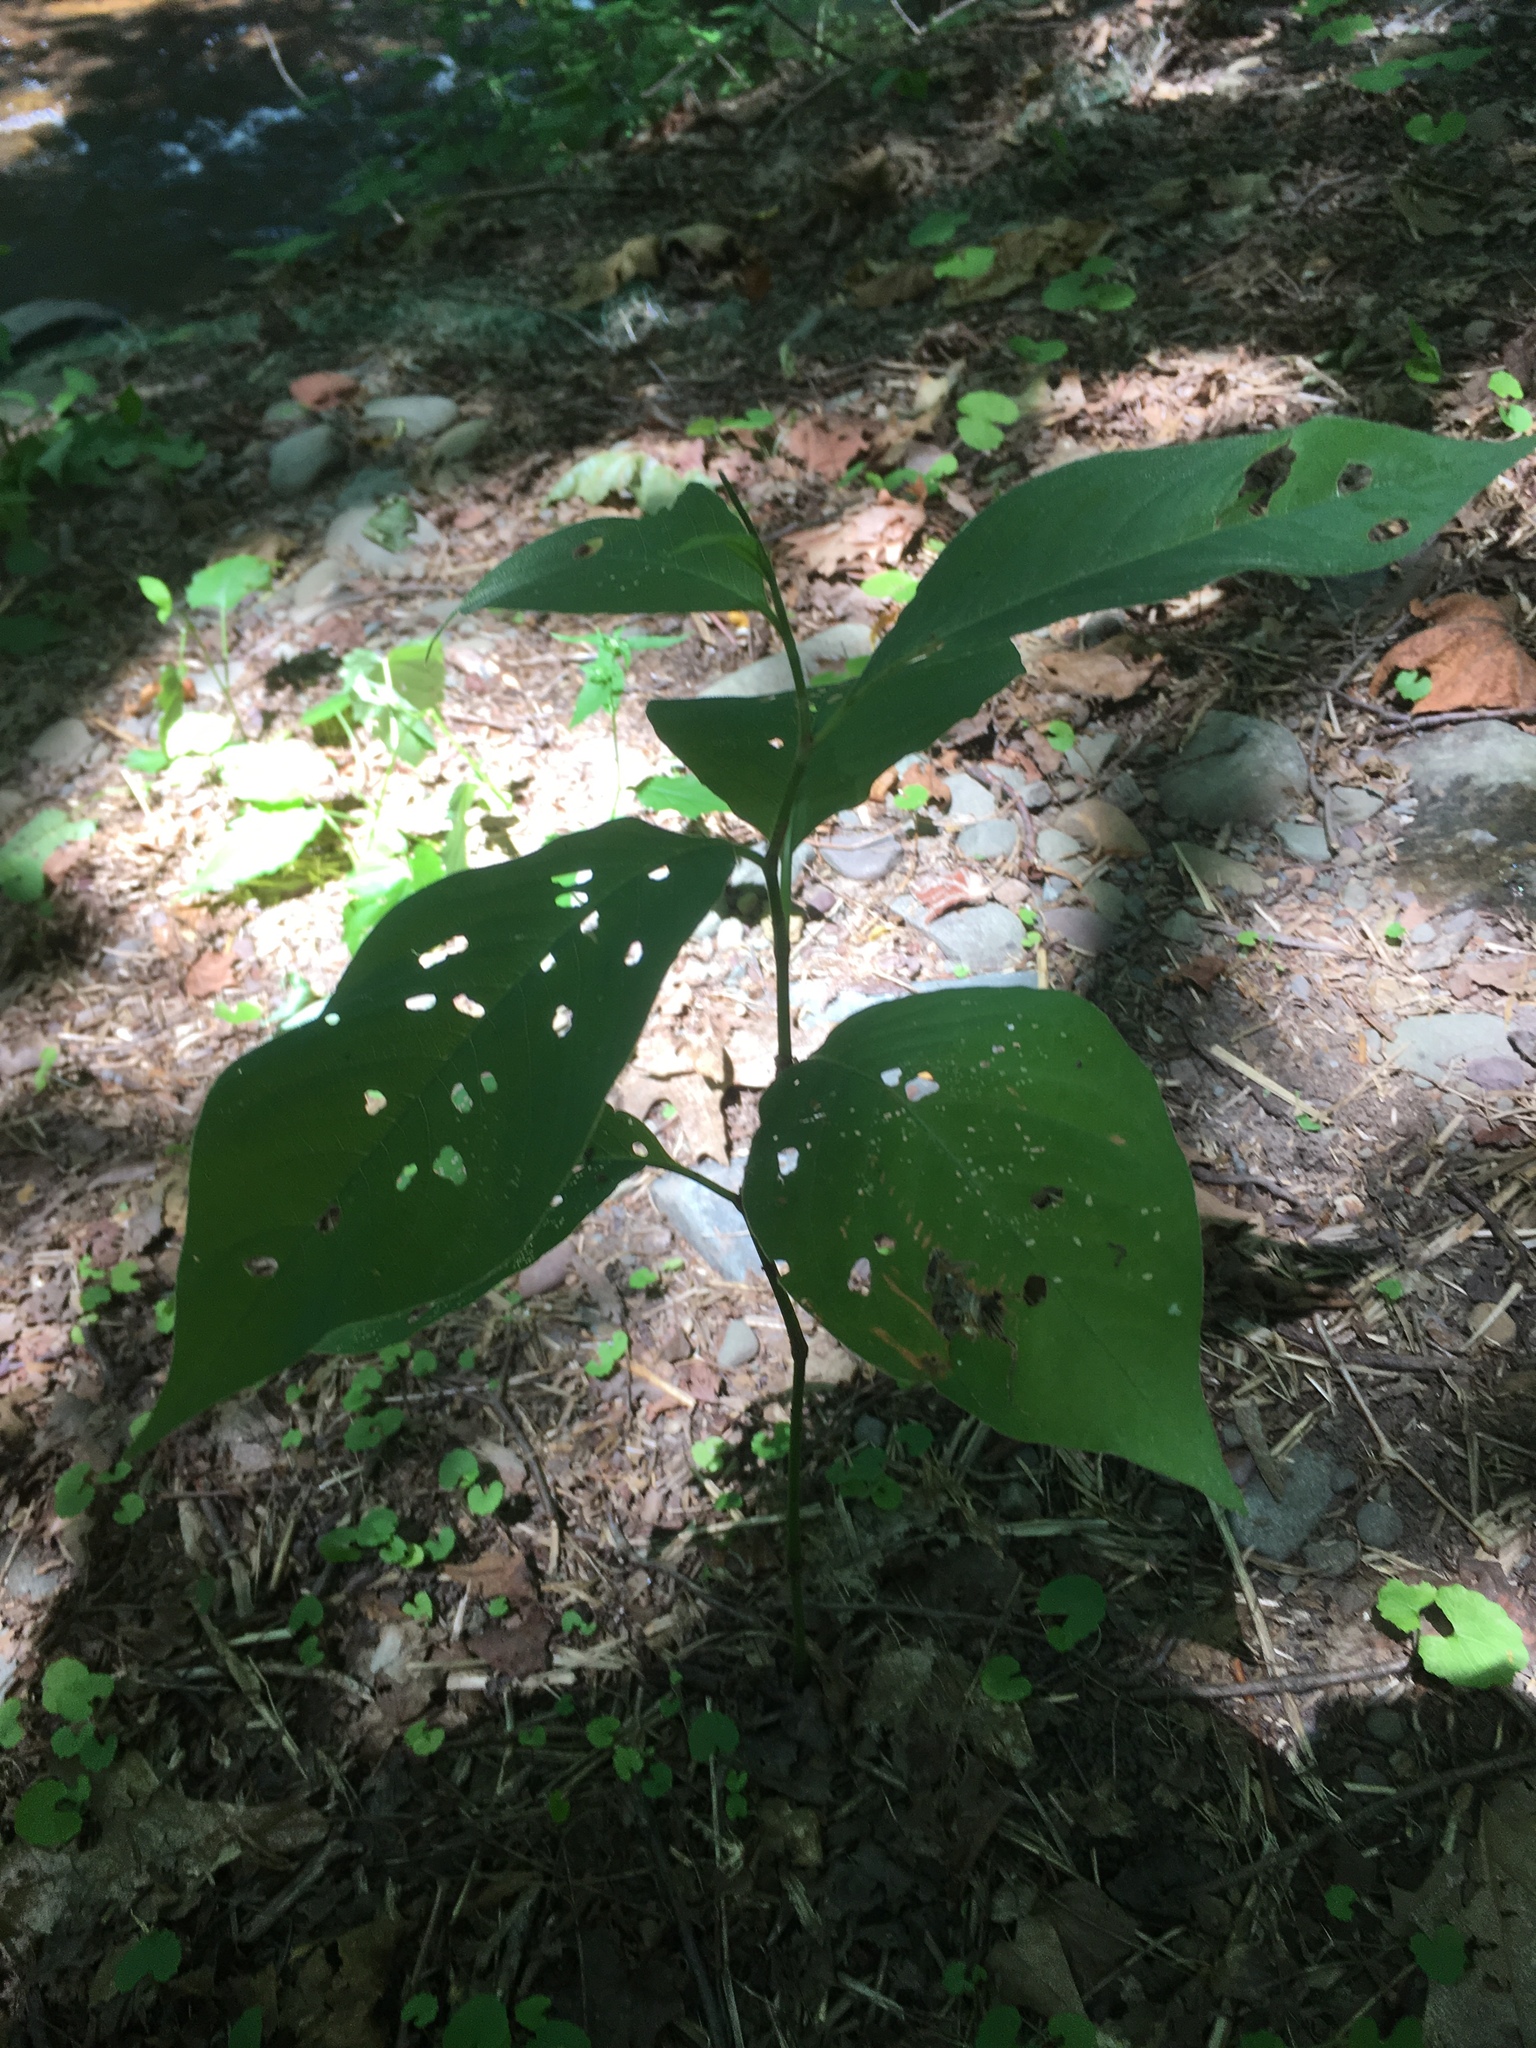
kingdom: Plantae
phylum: Tracheophyta
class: Magnoliopsida
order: Caryophyllales
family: Polygonaceae
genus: Persicaria
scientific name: Persicaria virginiana
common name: Jumpseed
